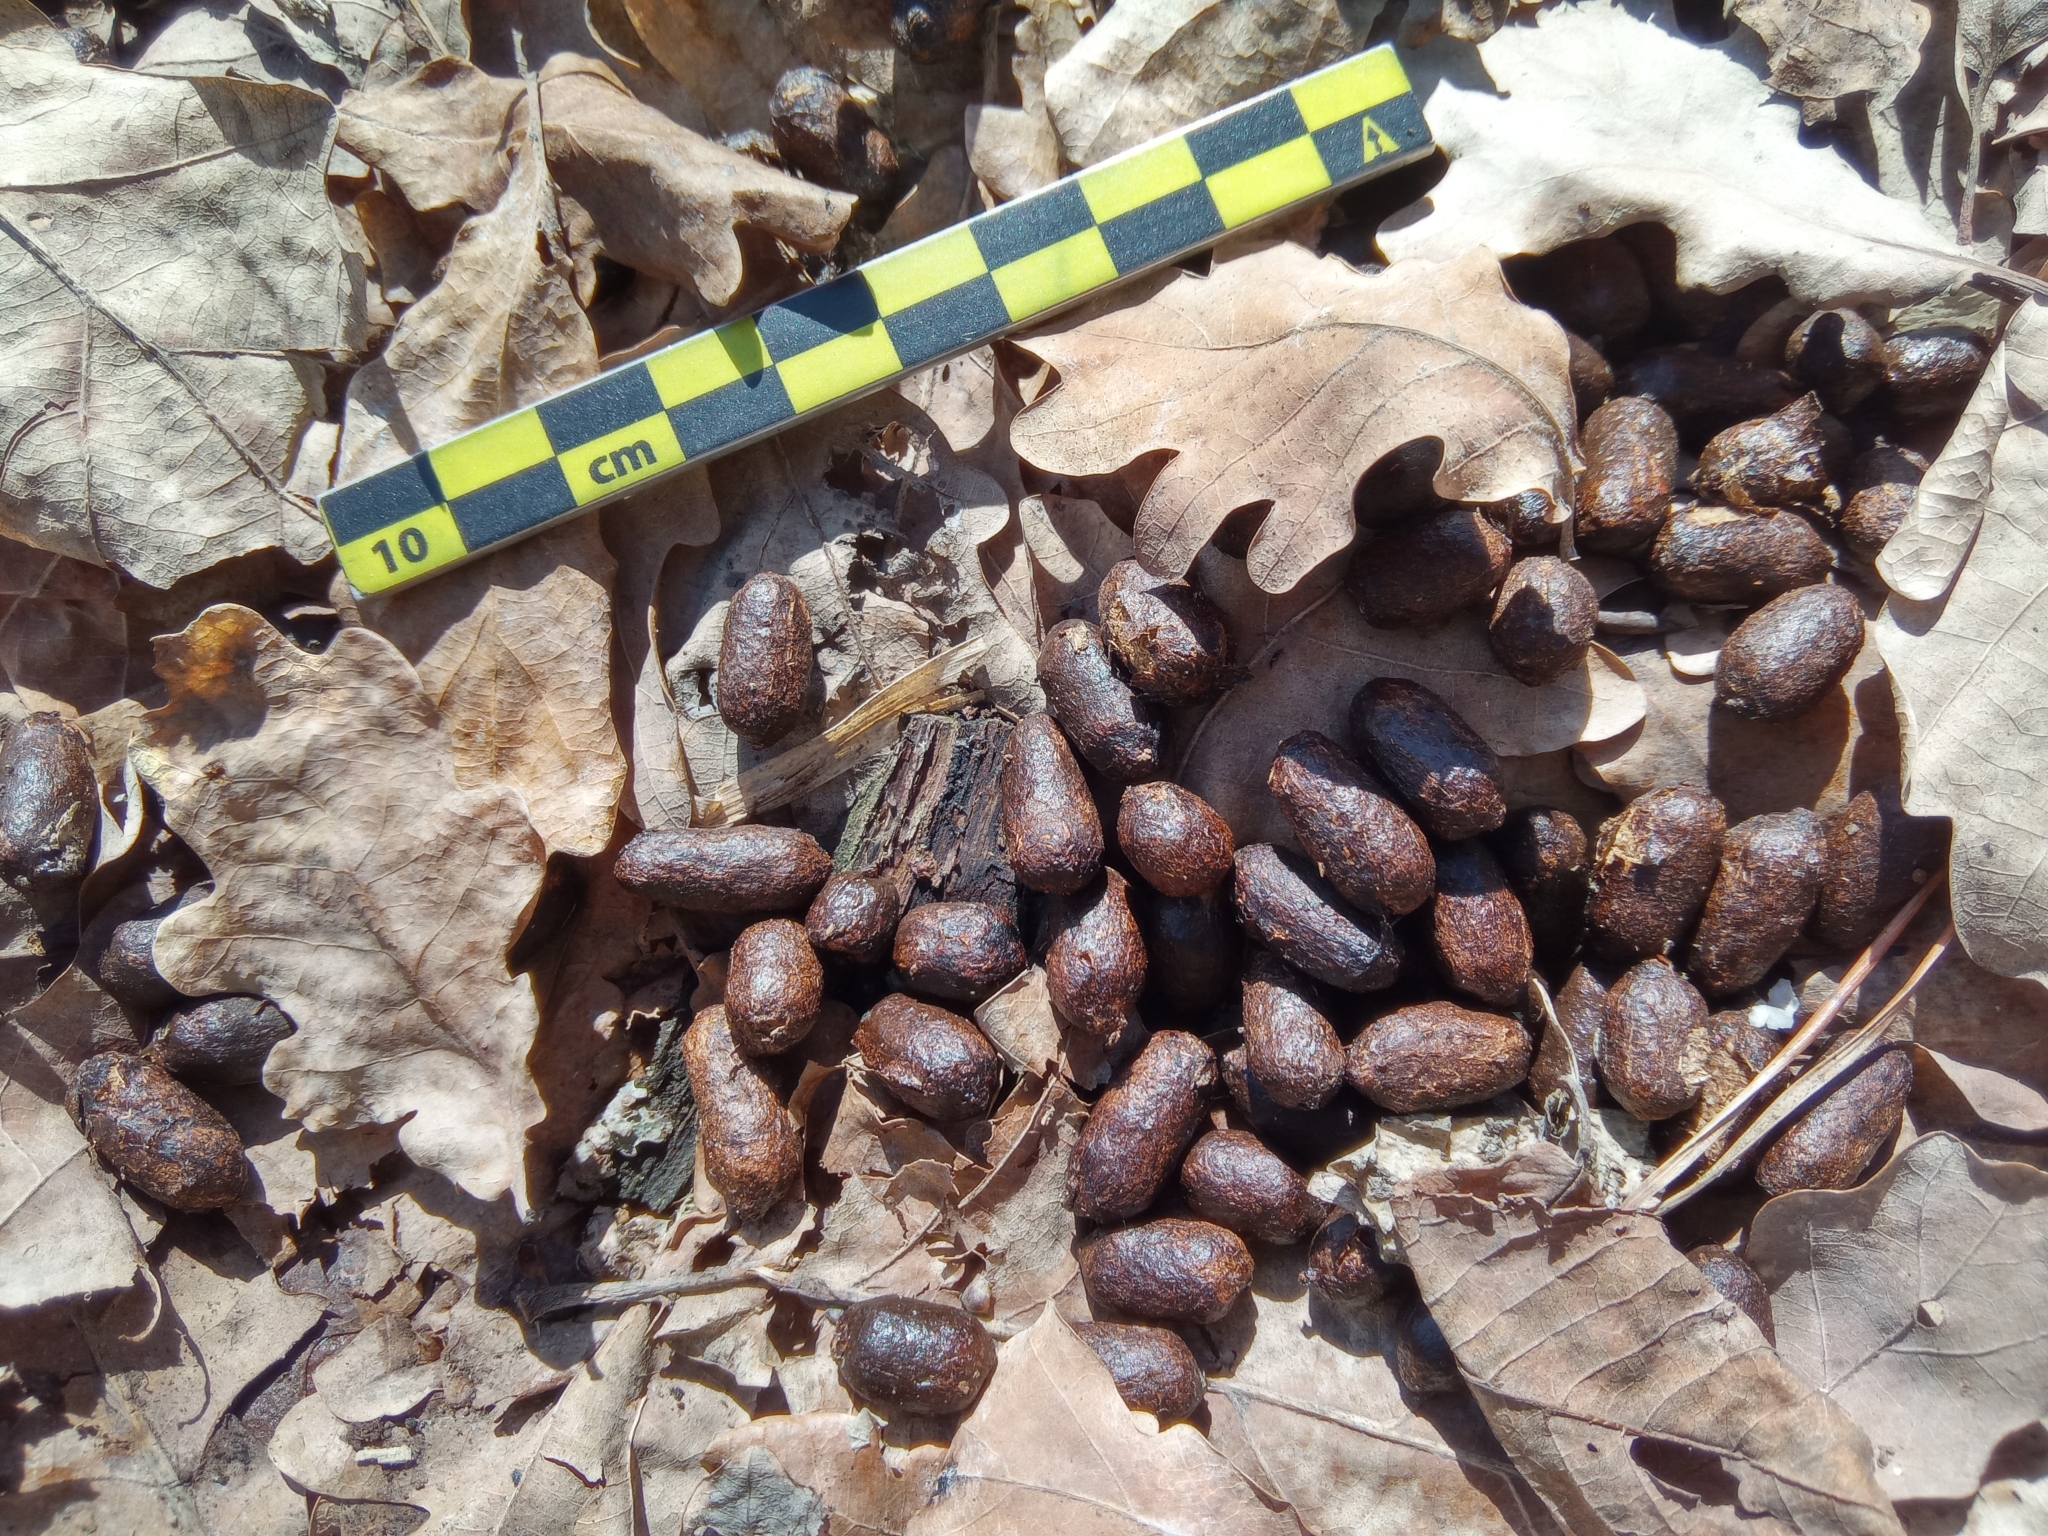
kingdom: Animalia
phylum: Chordata
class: Mammalia
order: Artiodactyla
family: Cervidae
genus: Capreolus
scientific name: Capreolus pygargus
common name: Siberian roe
